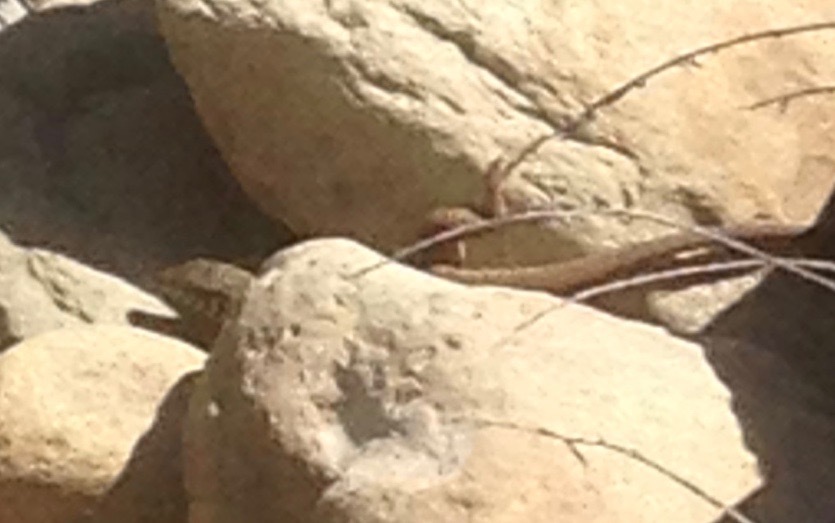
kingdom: Animalia
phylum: Chordata
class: Squamata
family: Teiidae
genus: Aspidoscelis
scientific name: Aspidoscelis tigris
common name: Tiger whiptail
